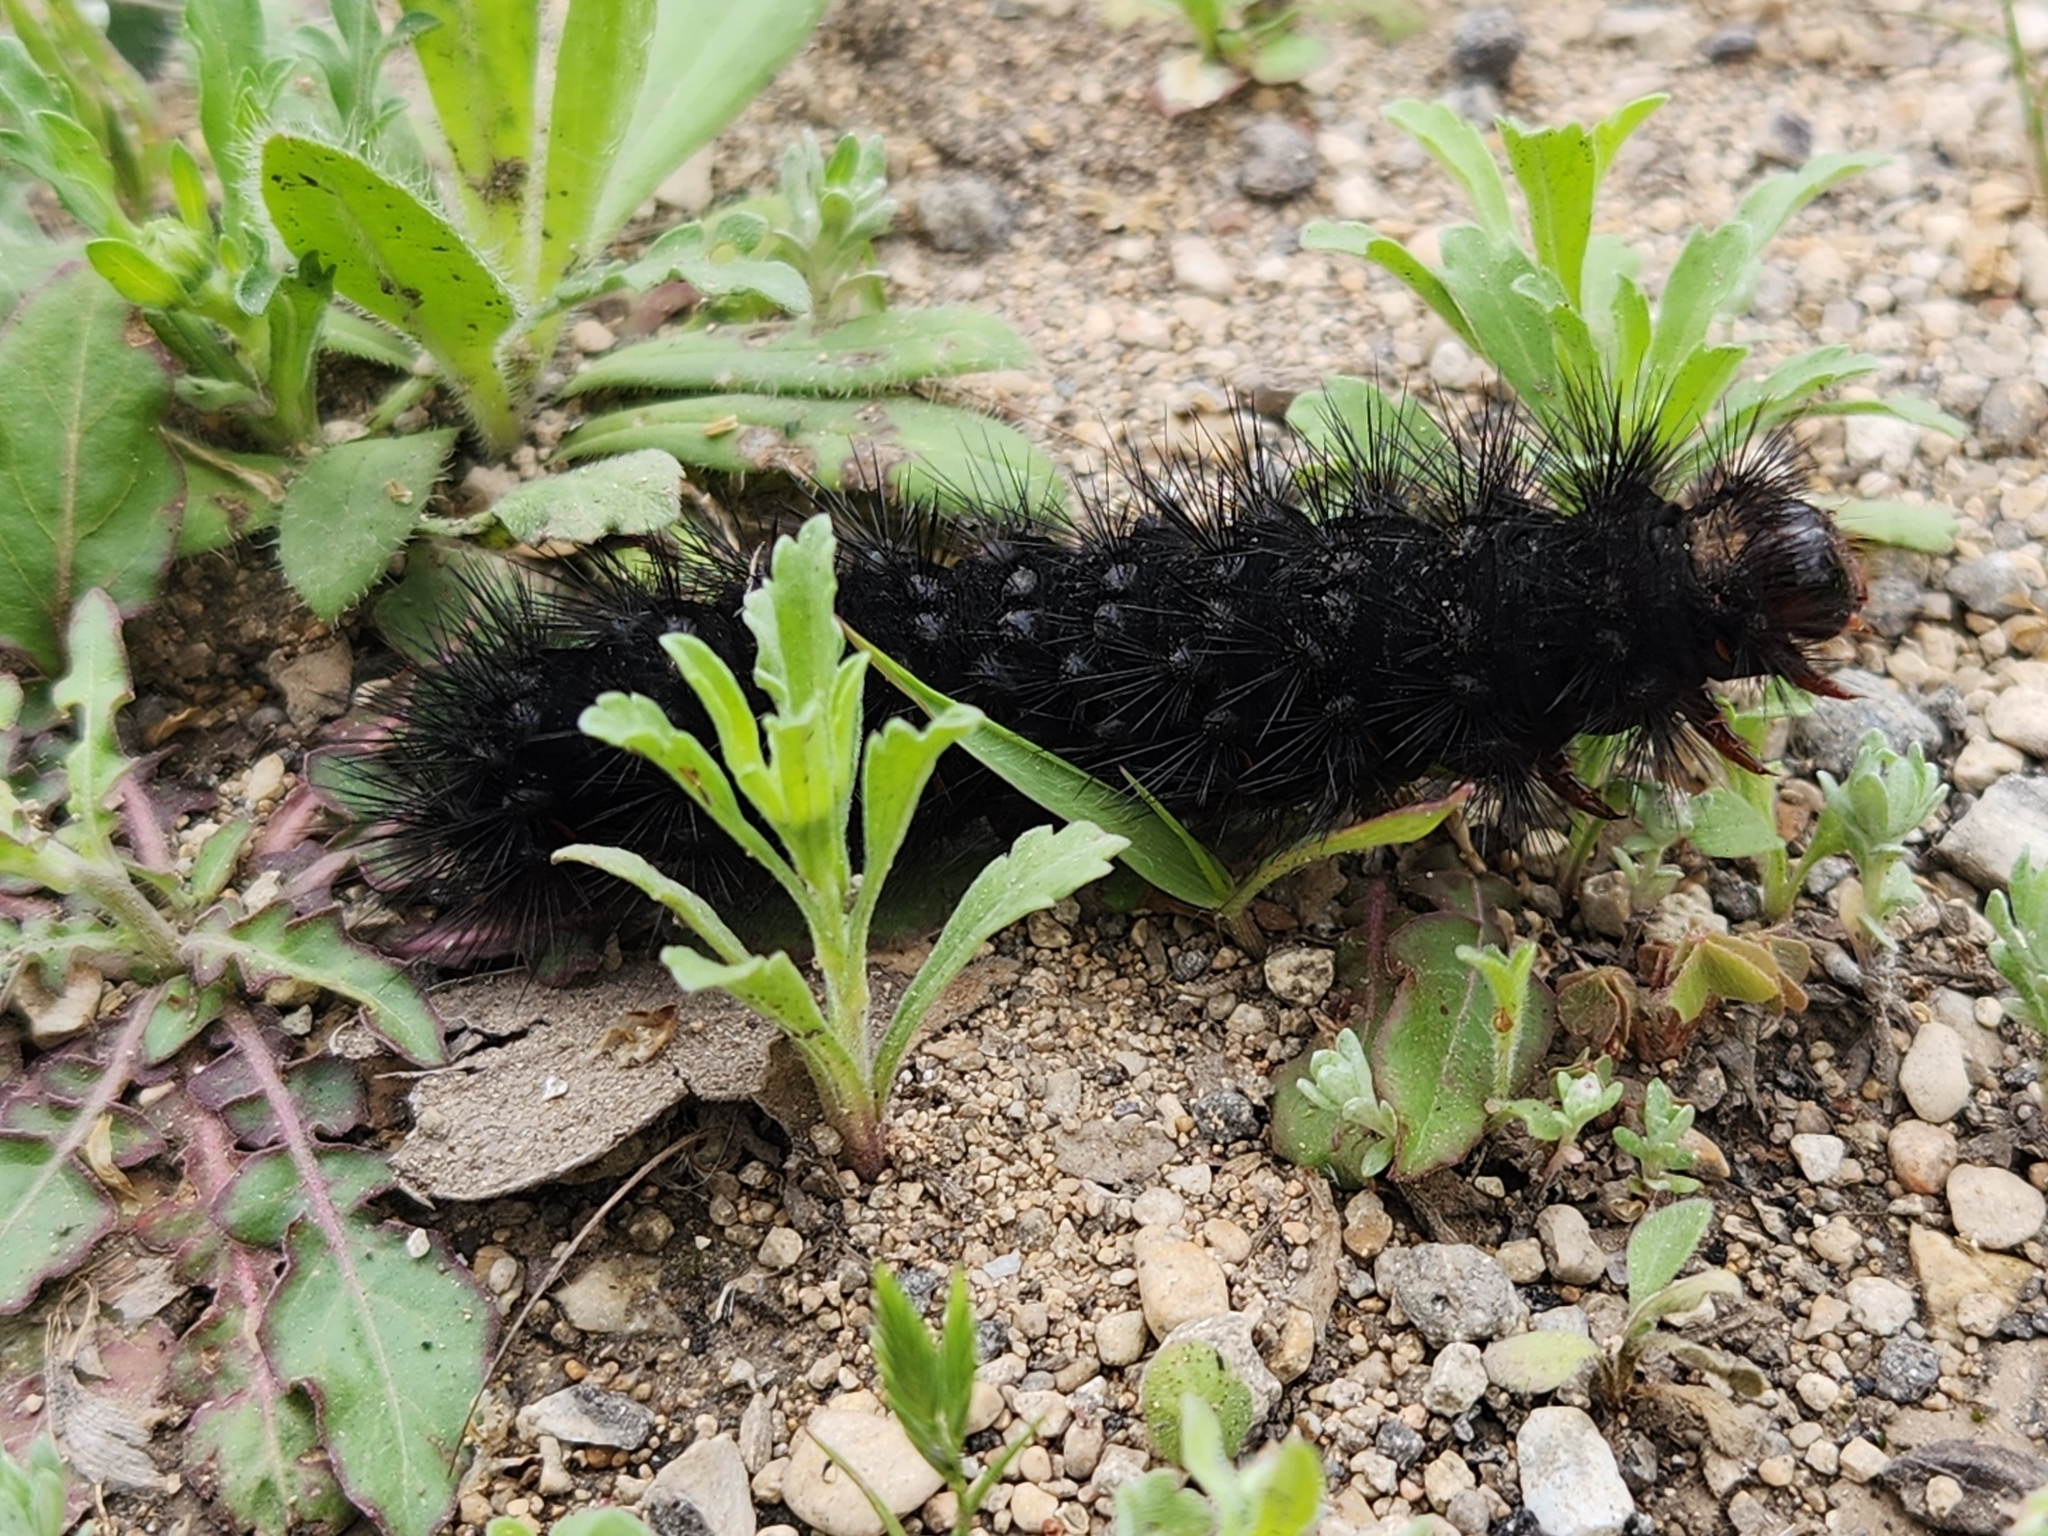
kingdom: Animalia
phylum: Arthropoda
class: Insecta
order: Lepidoptera
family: Erebidae
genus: Hypercompe
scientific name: Hypercompe scribonia
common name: Giant leopard moth
